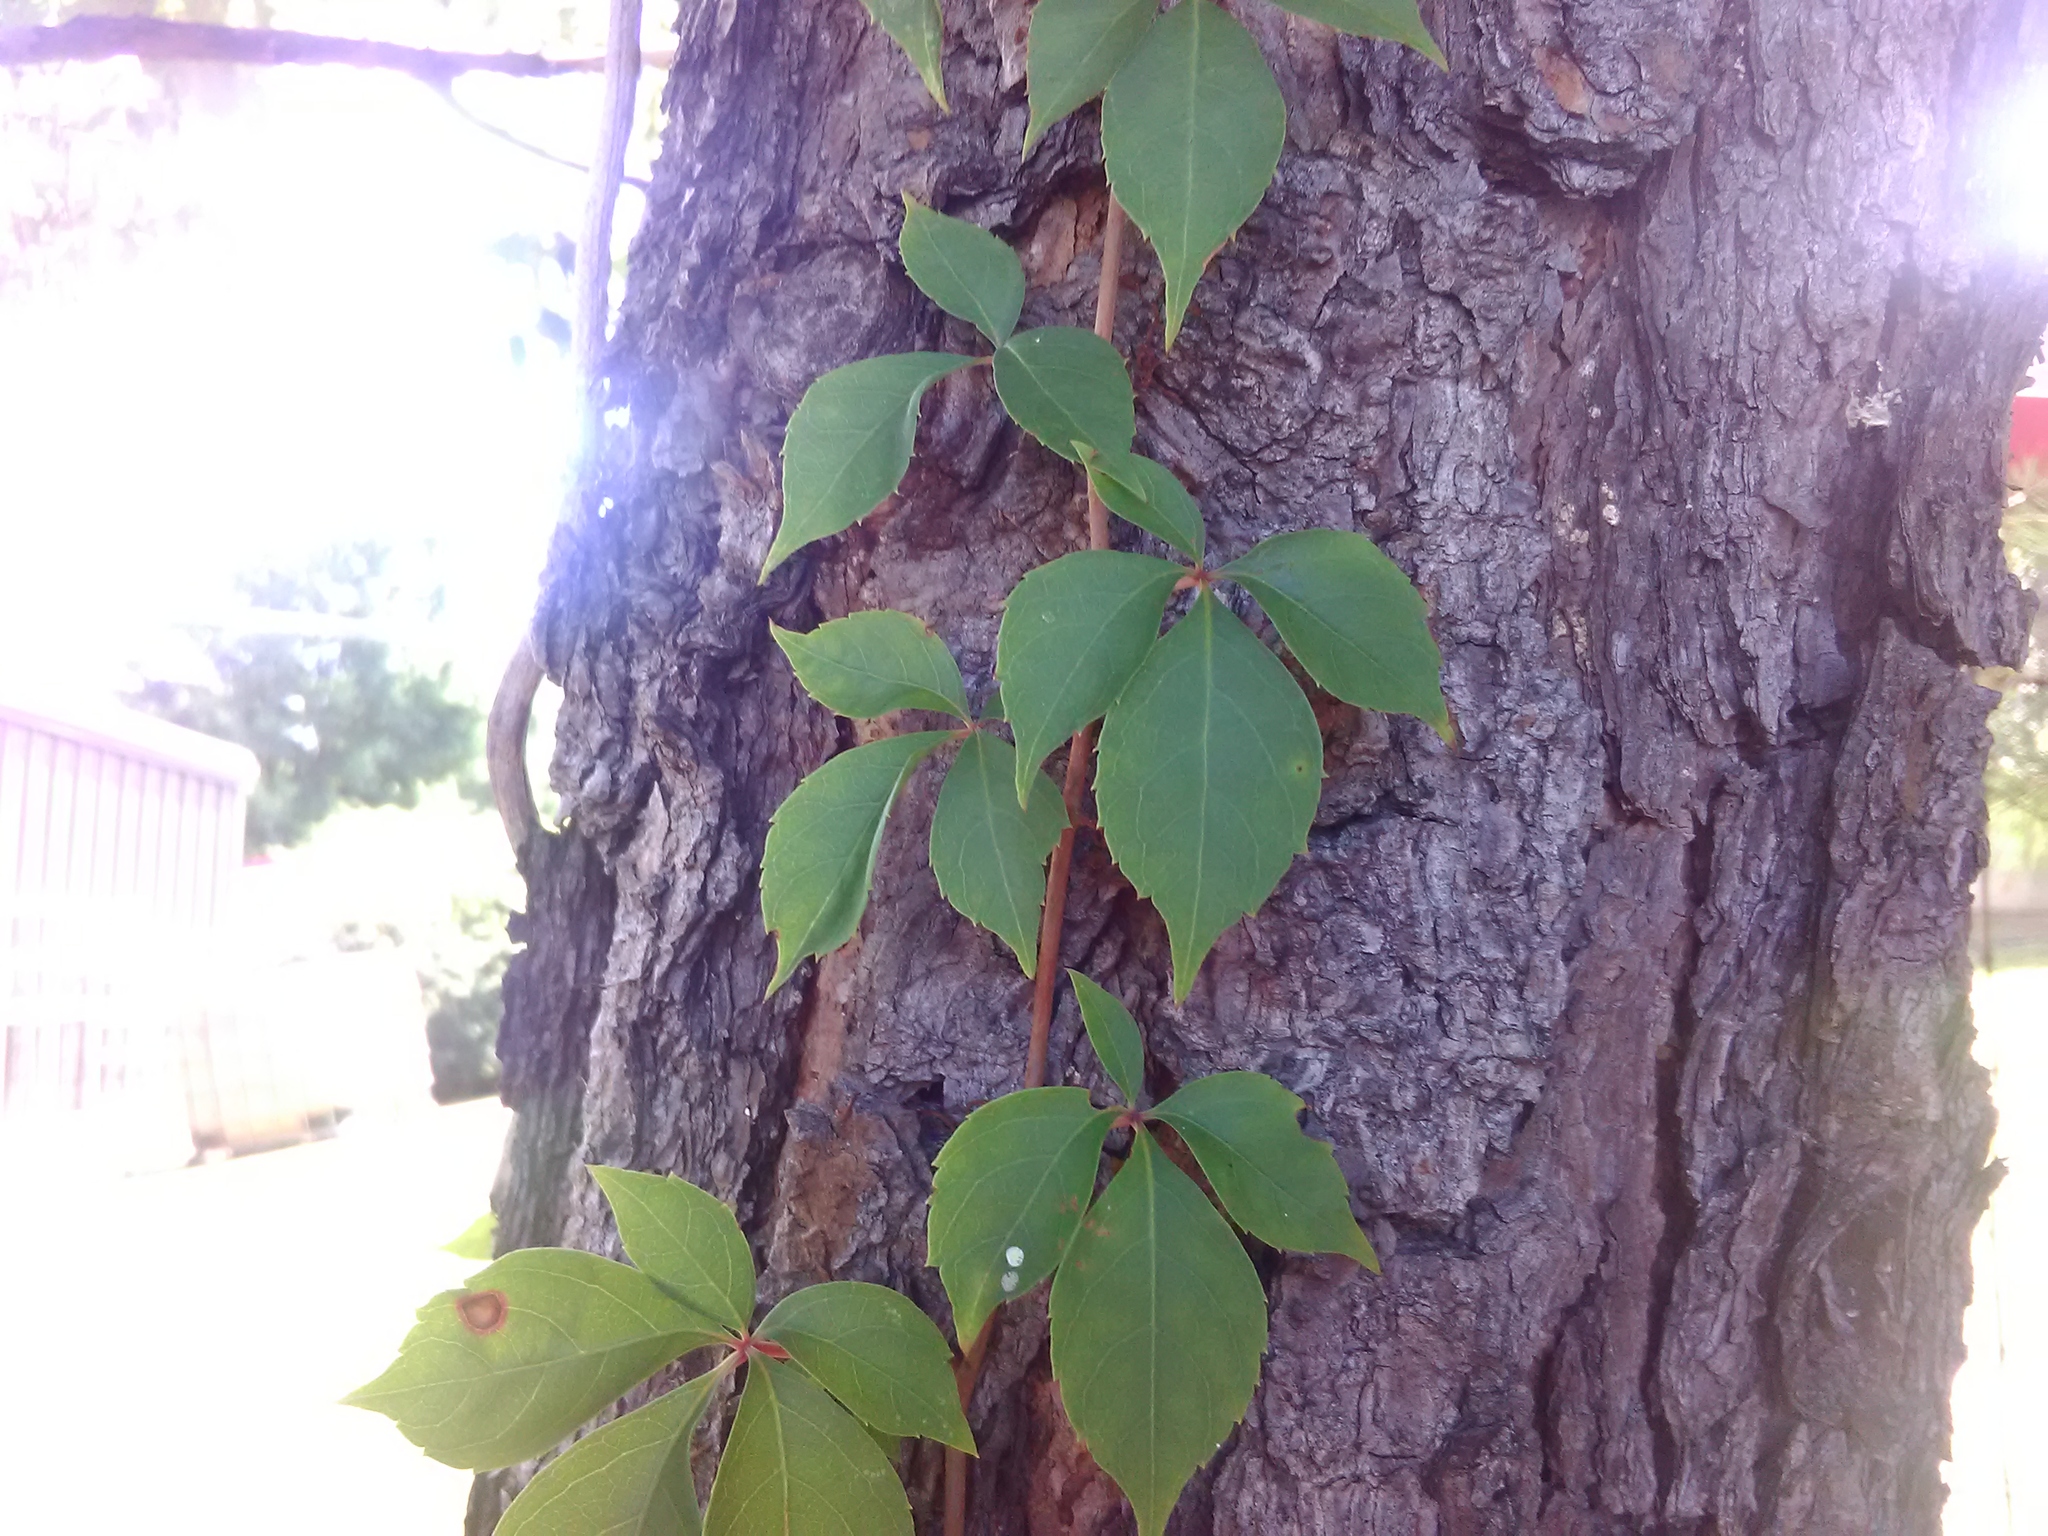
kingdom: Plantae
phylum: Tracheophyta
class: Magnoliopsida
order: Vitales
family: Vitaceae
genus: Parthenocissus
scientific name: Parthenocissus quinquefolia
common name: Virginia-creeper
